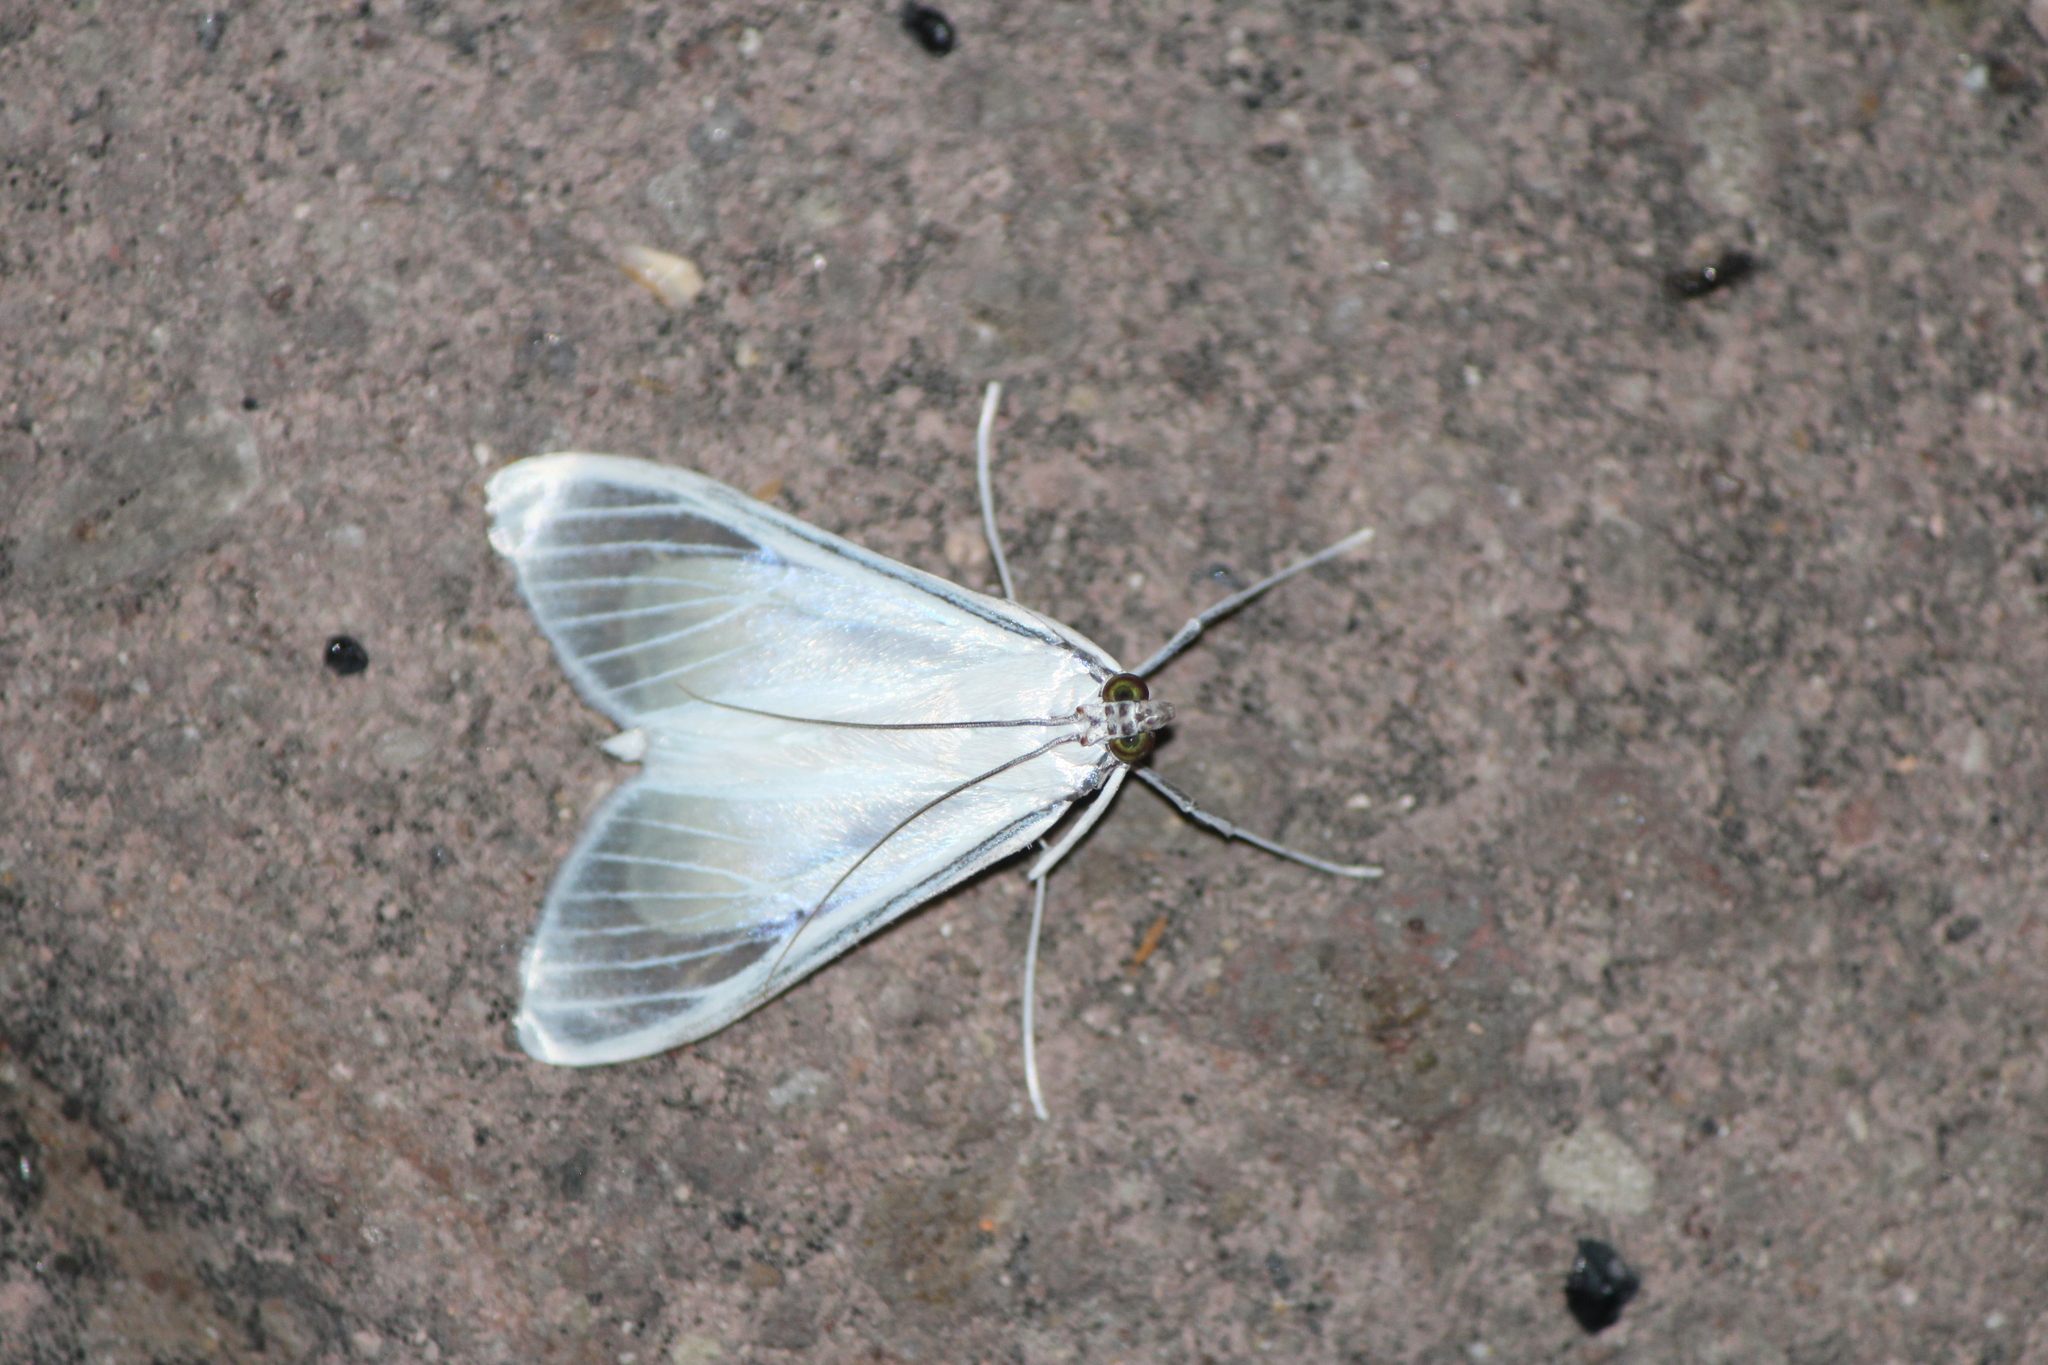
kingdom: Animalia
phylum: Arthropoda
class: Insecta
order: Lepidoptera
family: Crambidae
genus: Palpita
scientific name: Palpita flegia
